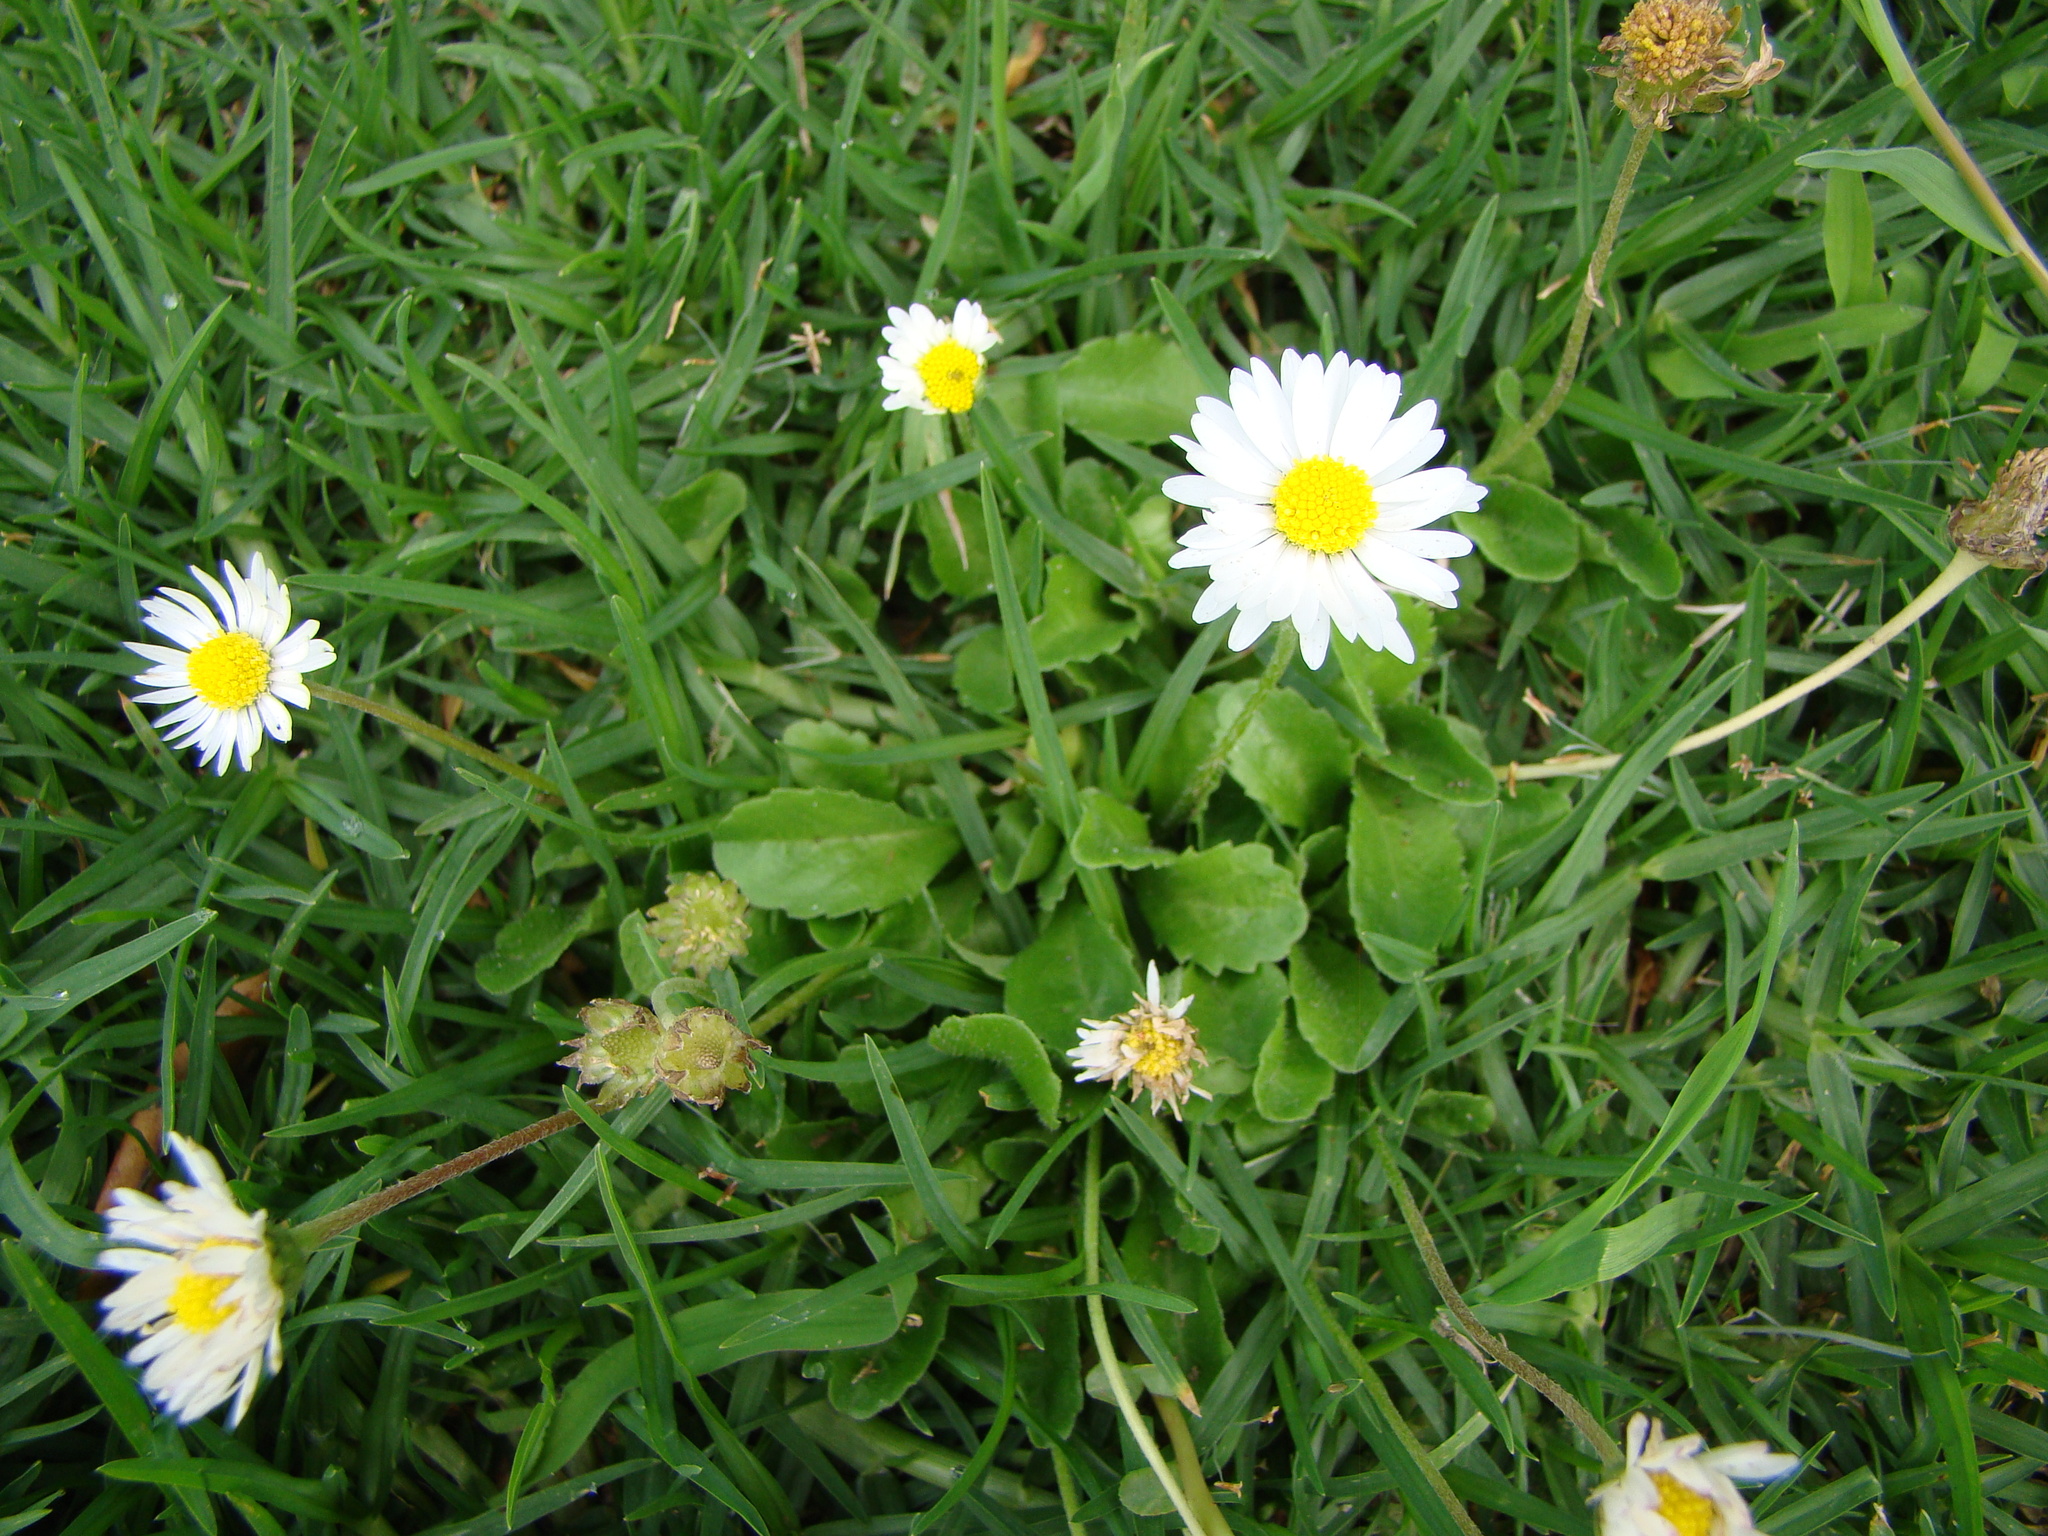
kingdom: Plantae
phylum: Tracheophyta
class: Magnoliopsida
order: Asterales
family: Asteraceae
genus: Bellis
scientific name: Bellis perennis
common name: Lawndaisy
